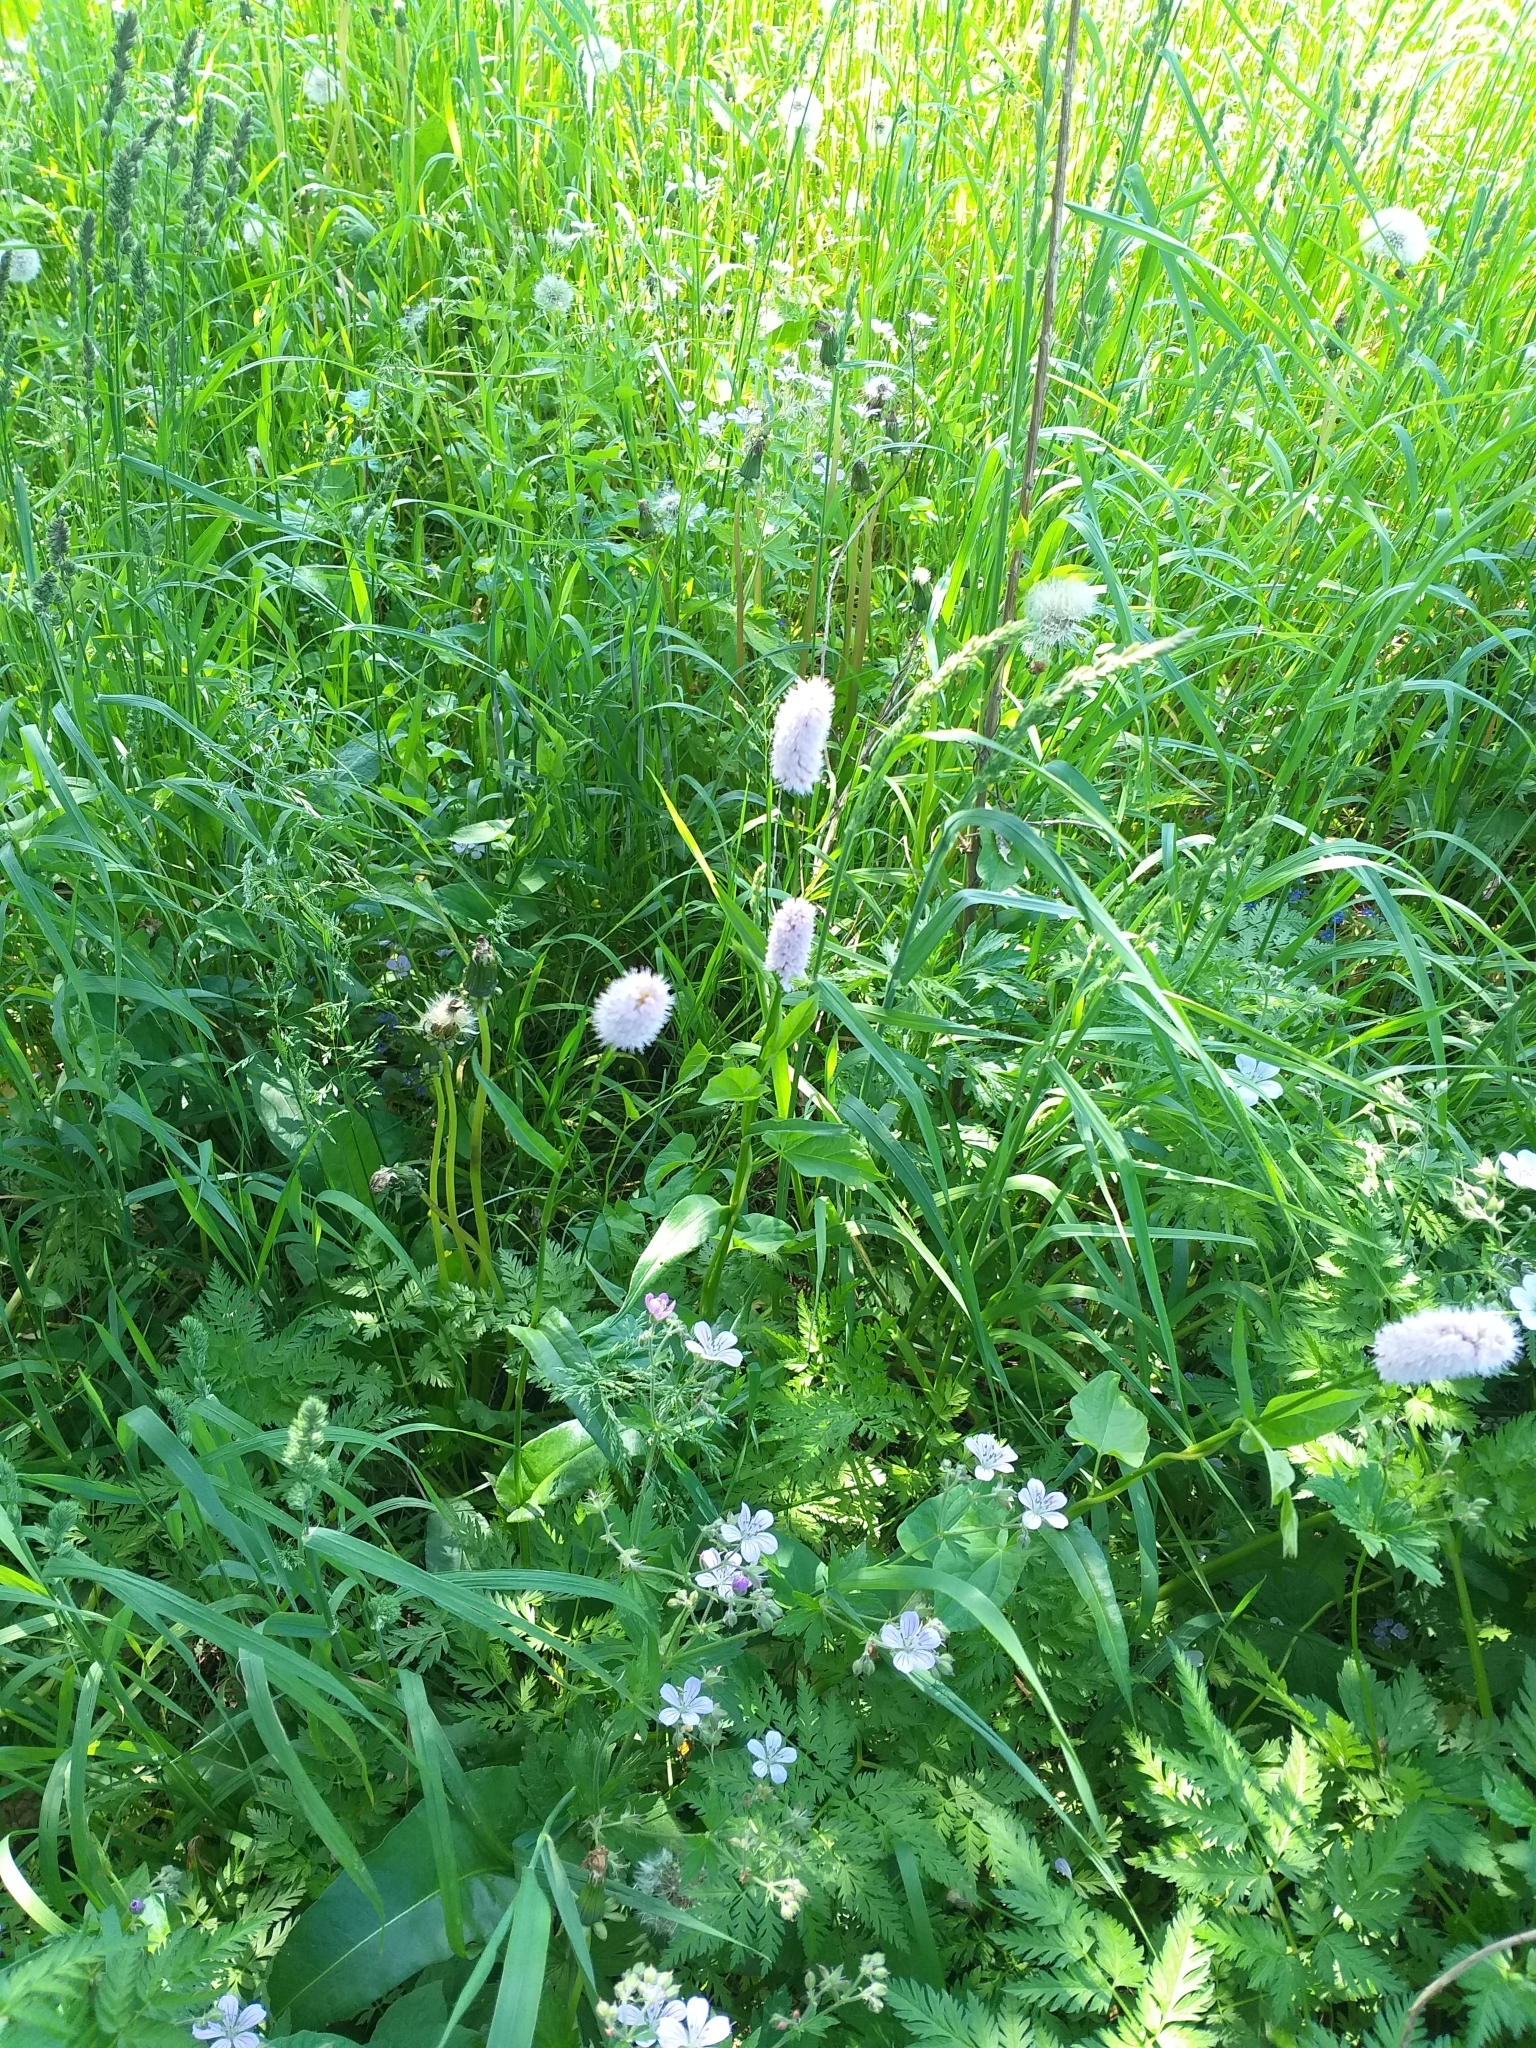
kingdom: Plantae
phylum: Tracheophyta
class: Magnoliopsida
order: Caryophyllales
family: Polygonaceae
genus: Bistorta
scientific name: Bistorta officinalis
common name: Common bistort
